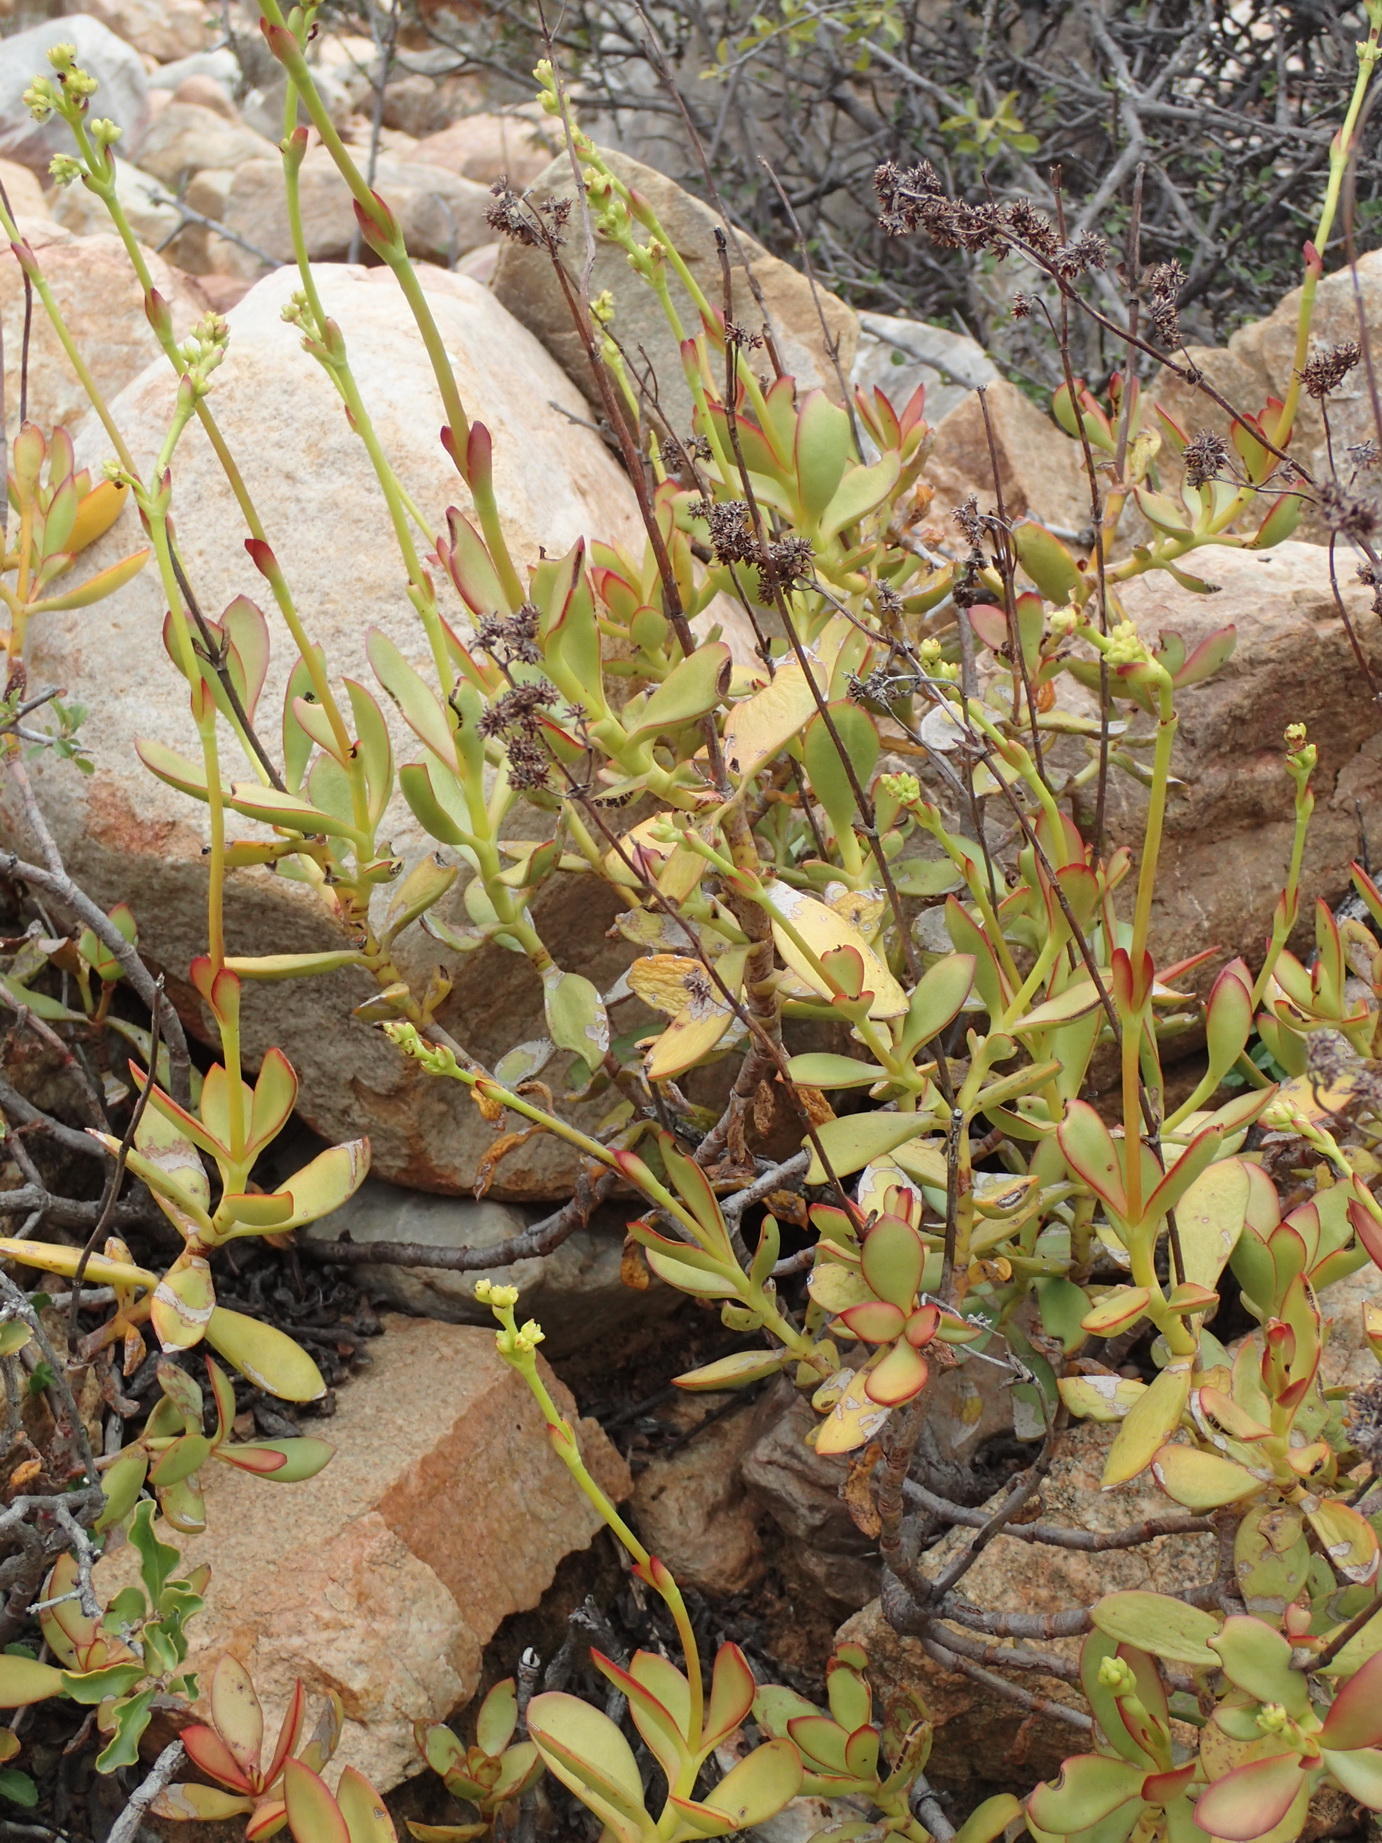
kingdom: Plantae
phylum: Tracheophyta
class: Magnoliopsida
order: Saxifragales
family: Crassulaceae
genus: Crassula
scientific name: Crassula cultrata
